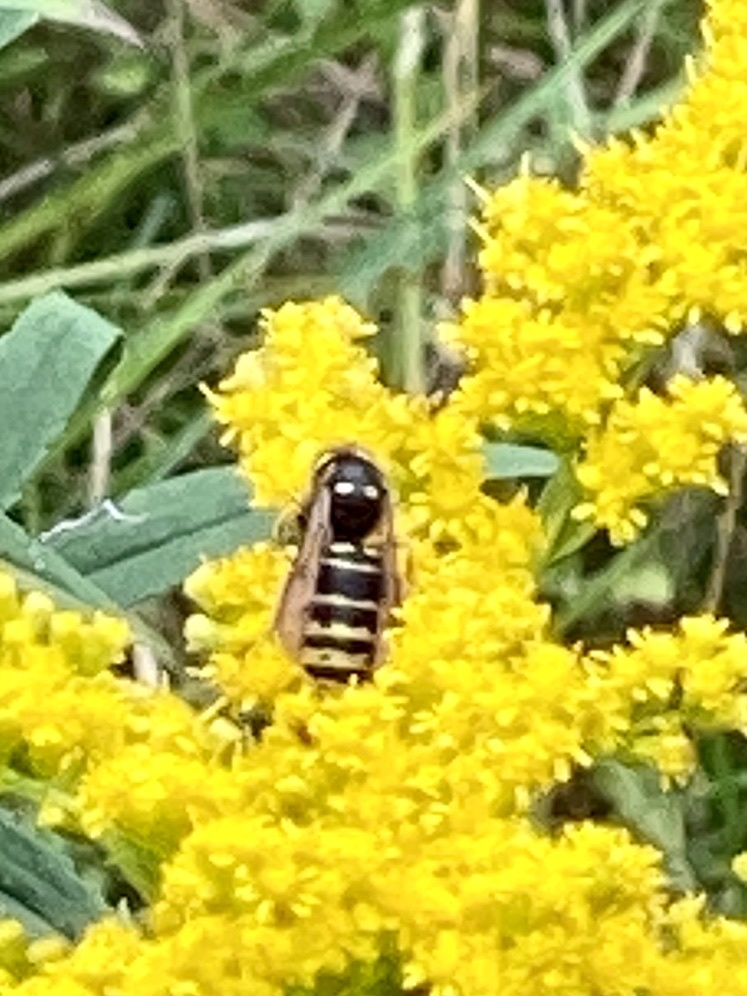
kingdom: Animalia
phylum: Arthropoda
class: Insecta
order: Hymenoptera
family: Vespidae
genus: Vespula
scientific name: Vespula vidua
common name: Widow yellowjacket
